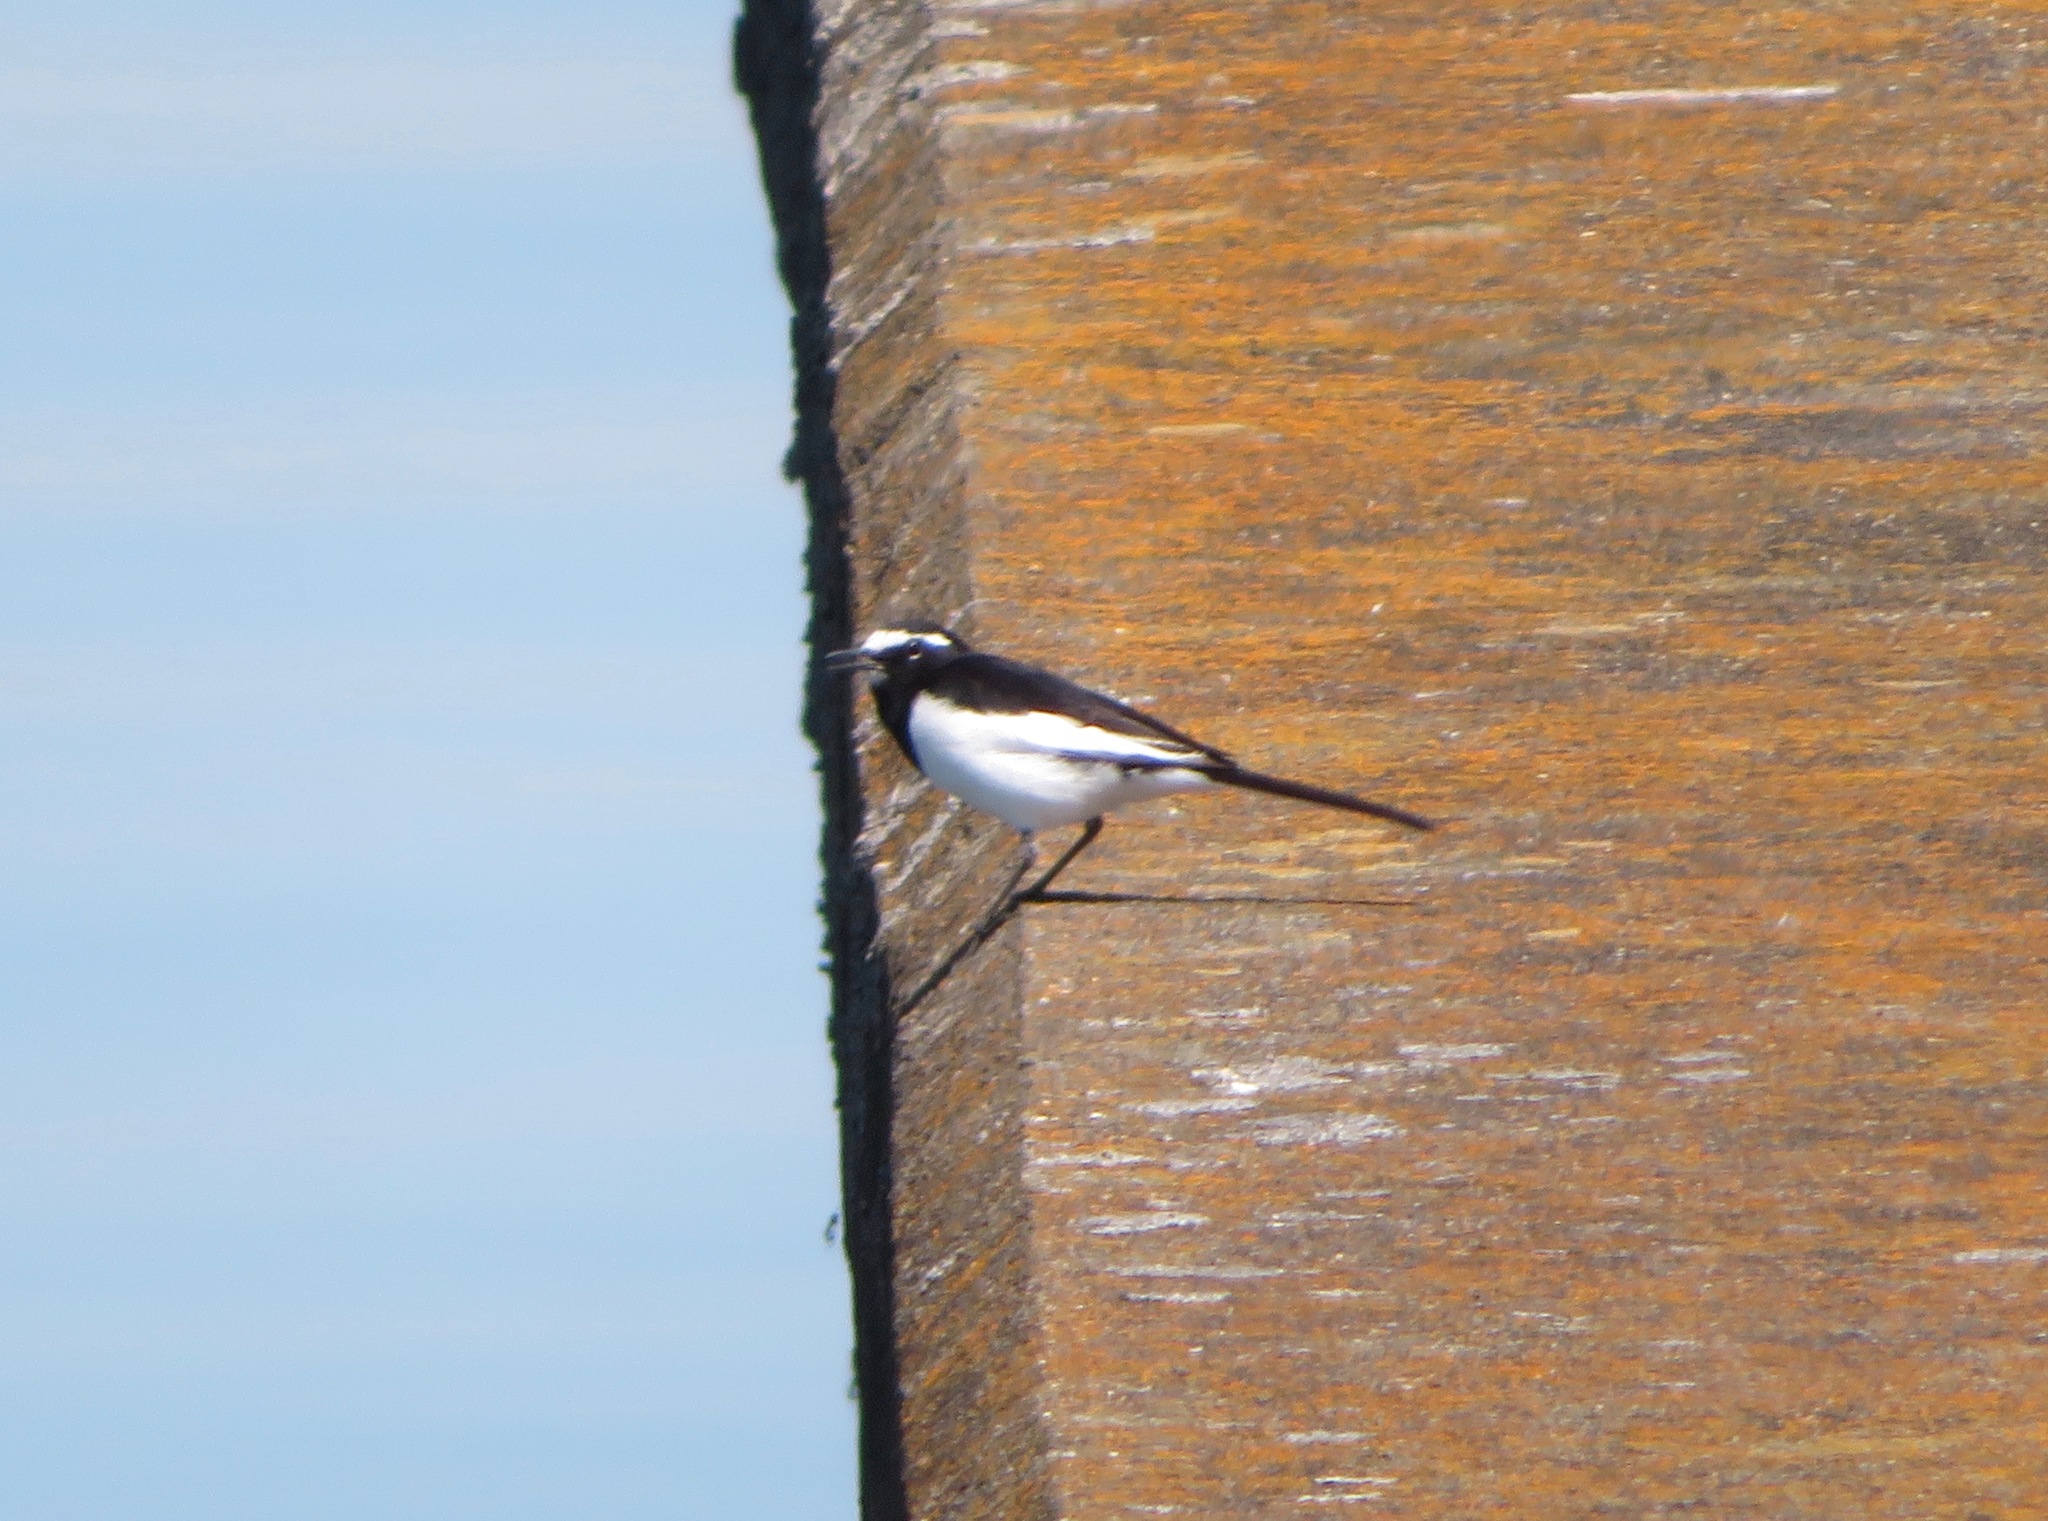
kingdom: Animalia
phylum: Chordata
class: Aves
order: Passeriformes
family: Motacillidae
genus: Motacilla
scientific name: Motacilla grandis
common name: Japanese wagtail
